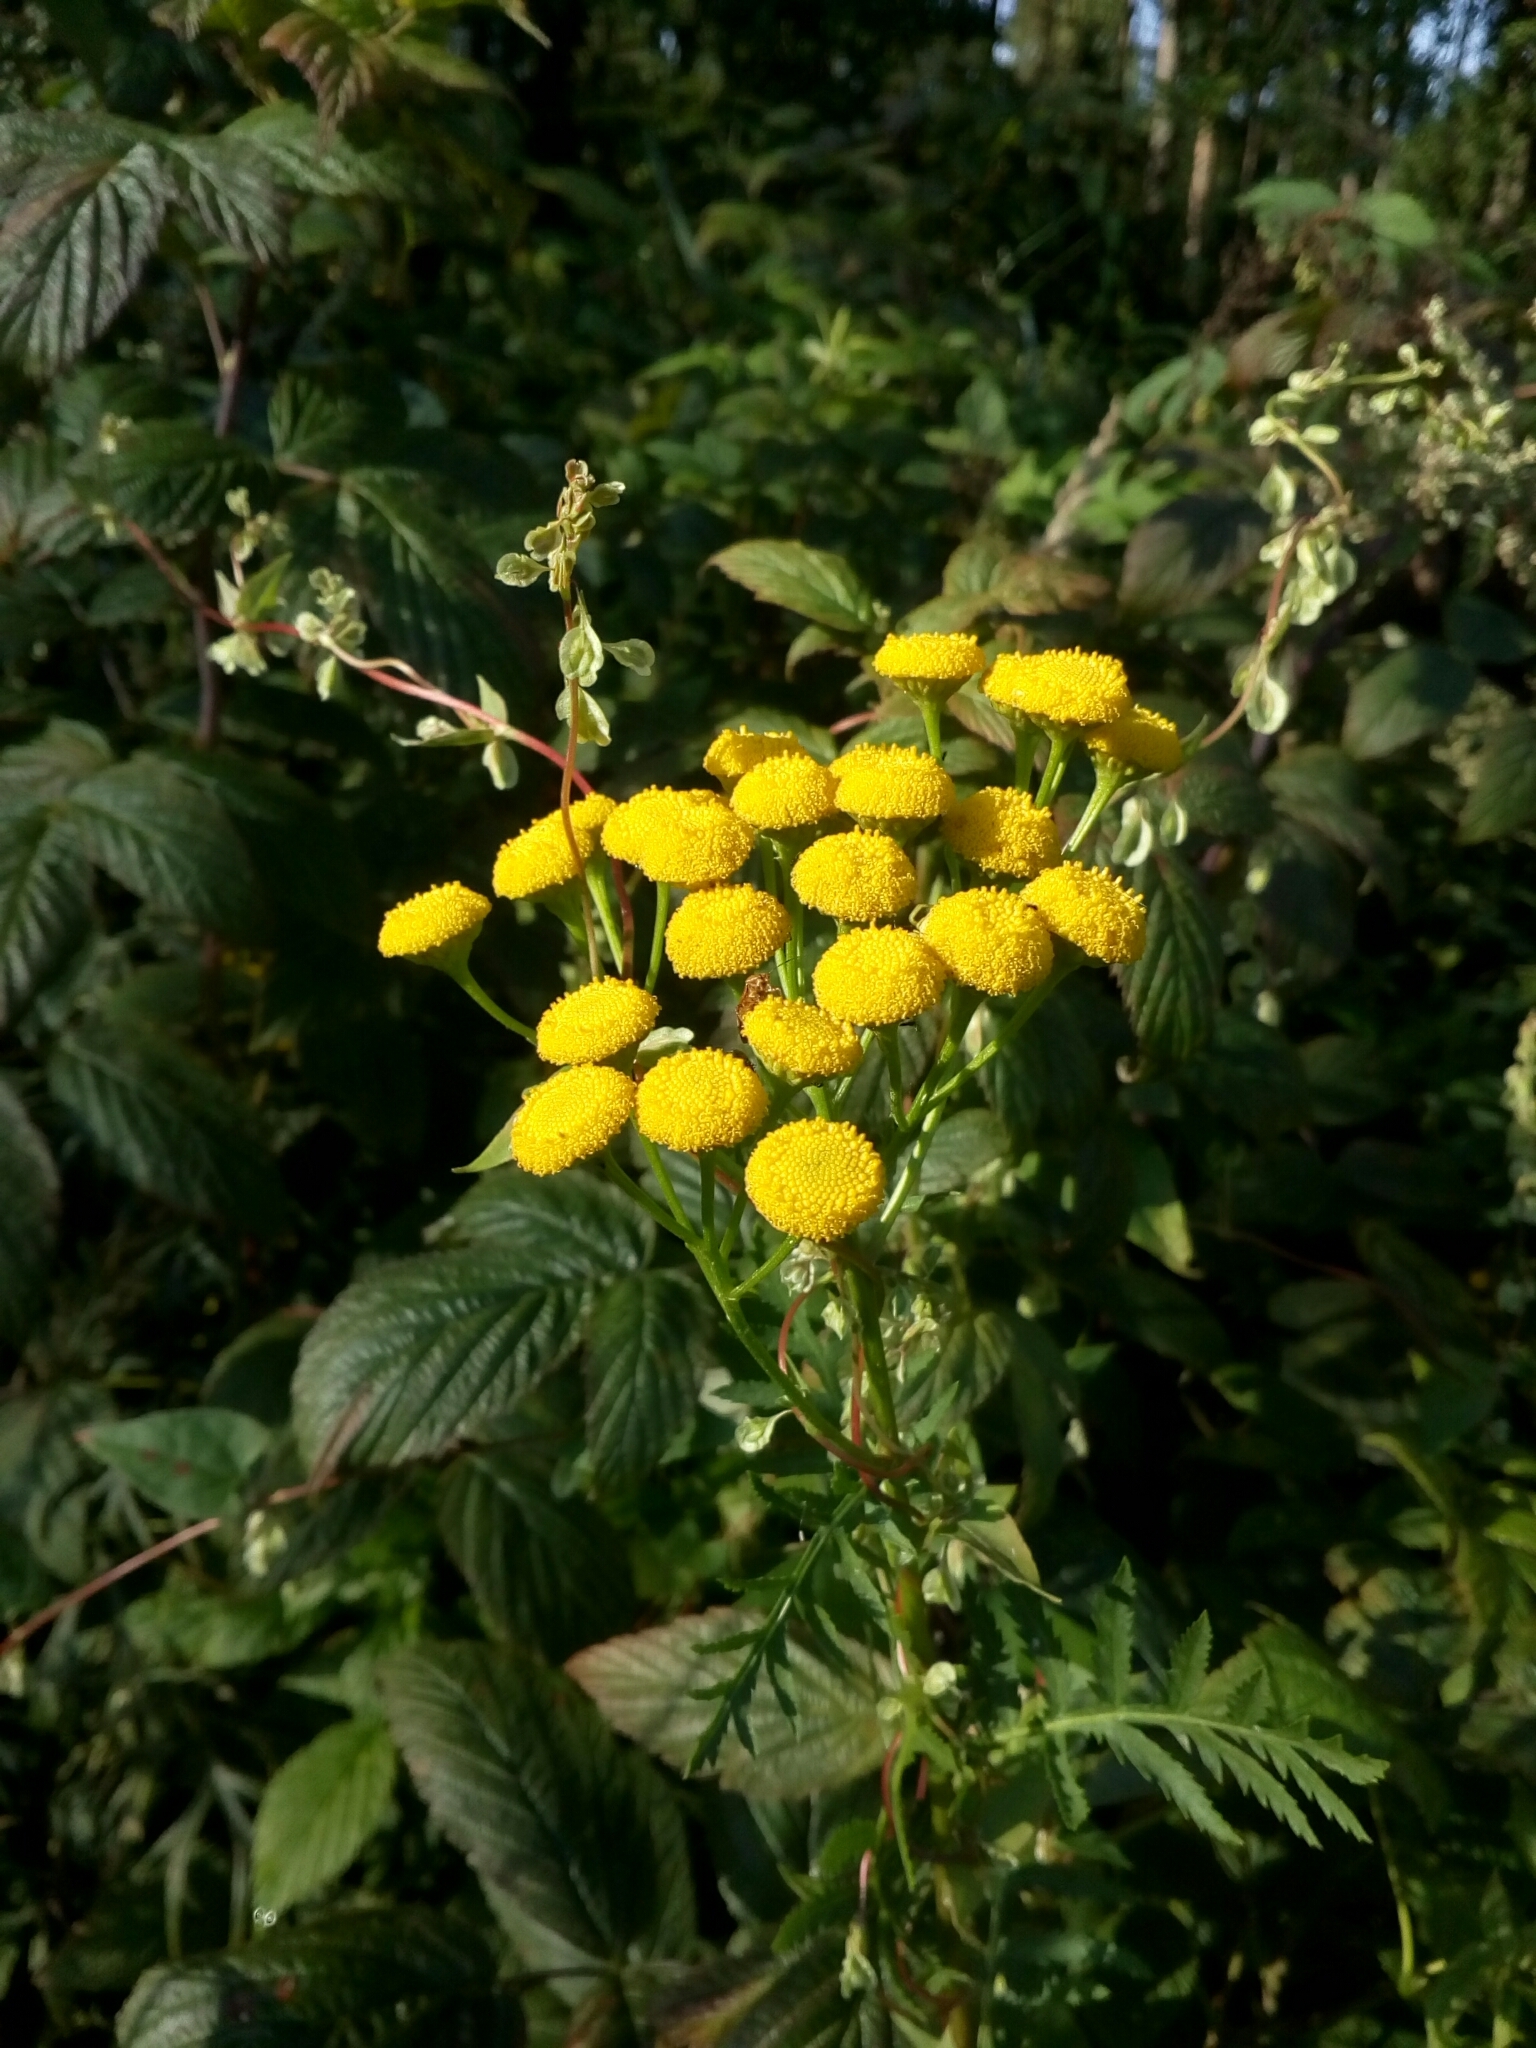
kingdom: Plantae
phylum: Tracheophyta
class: Magnoliopsida
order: Asterales
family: Asteraceae
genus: Tanacetum
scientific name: Tanacetum vulgare
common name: Common tansy
